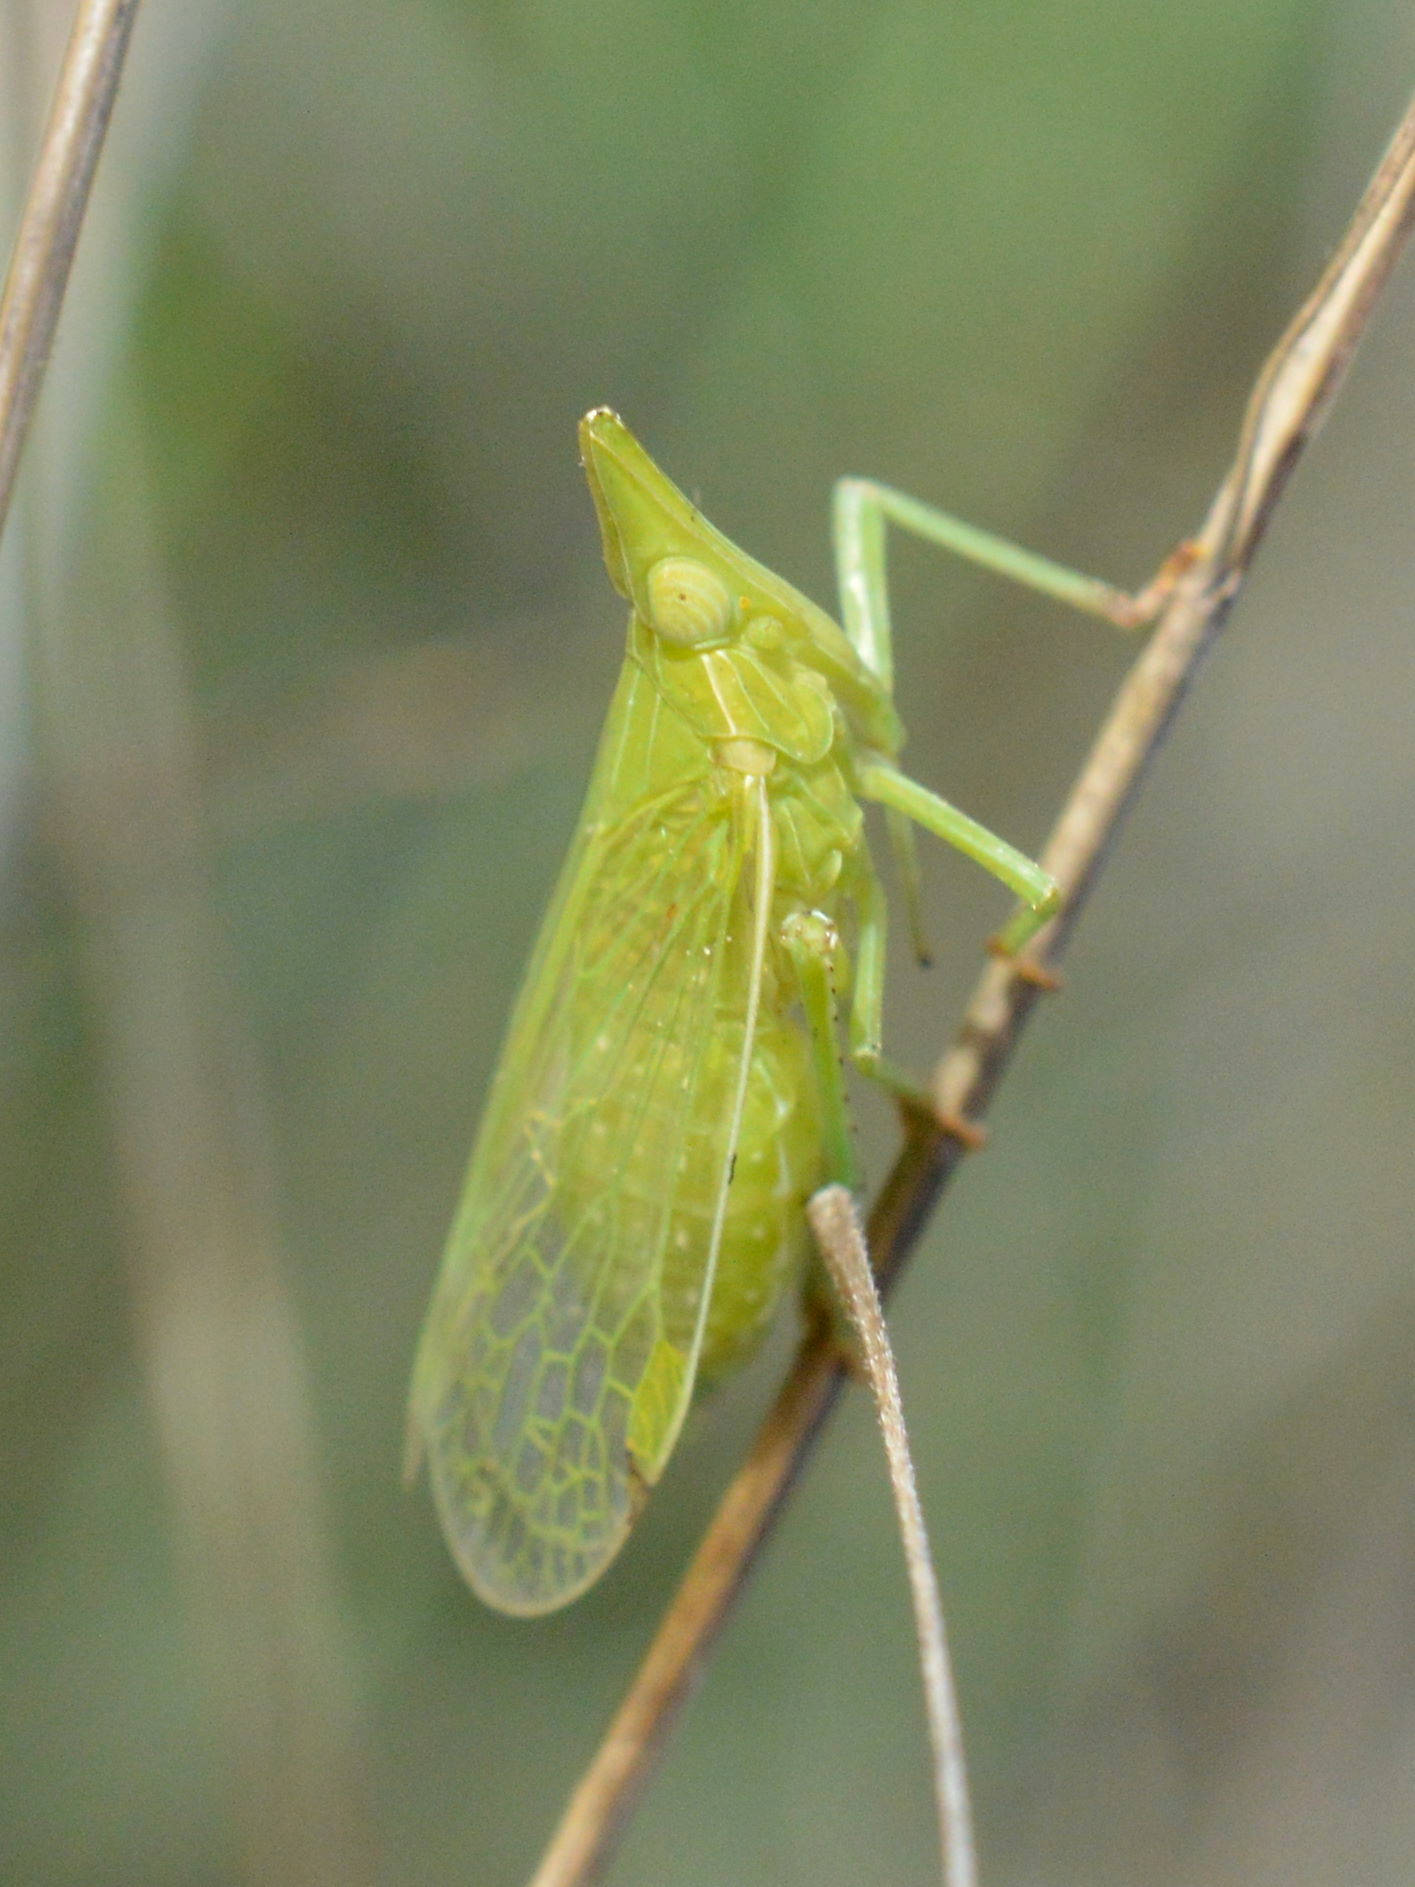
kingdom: Animalia
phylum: Arthropoda
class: Insecta
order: Hemiptera
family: Dictyopharidae
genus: Dictyophara
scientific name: Dictyophara europaea
